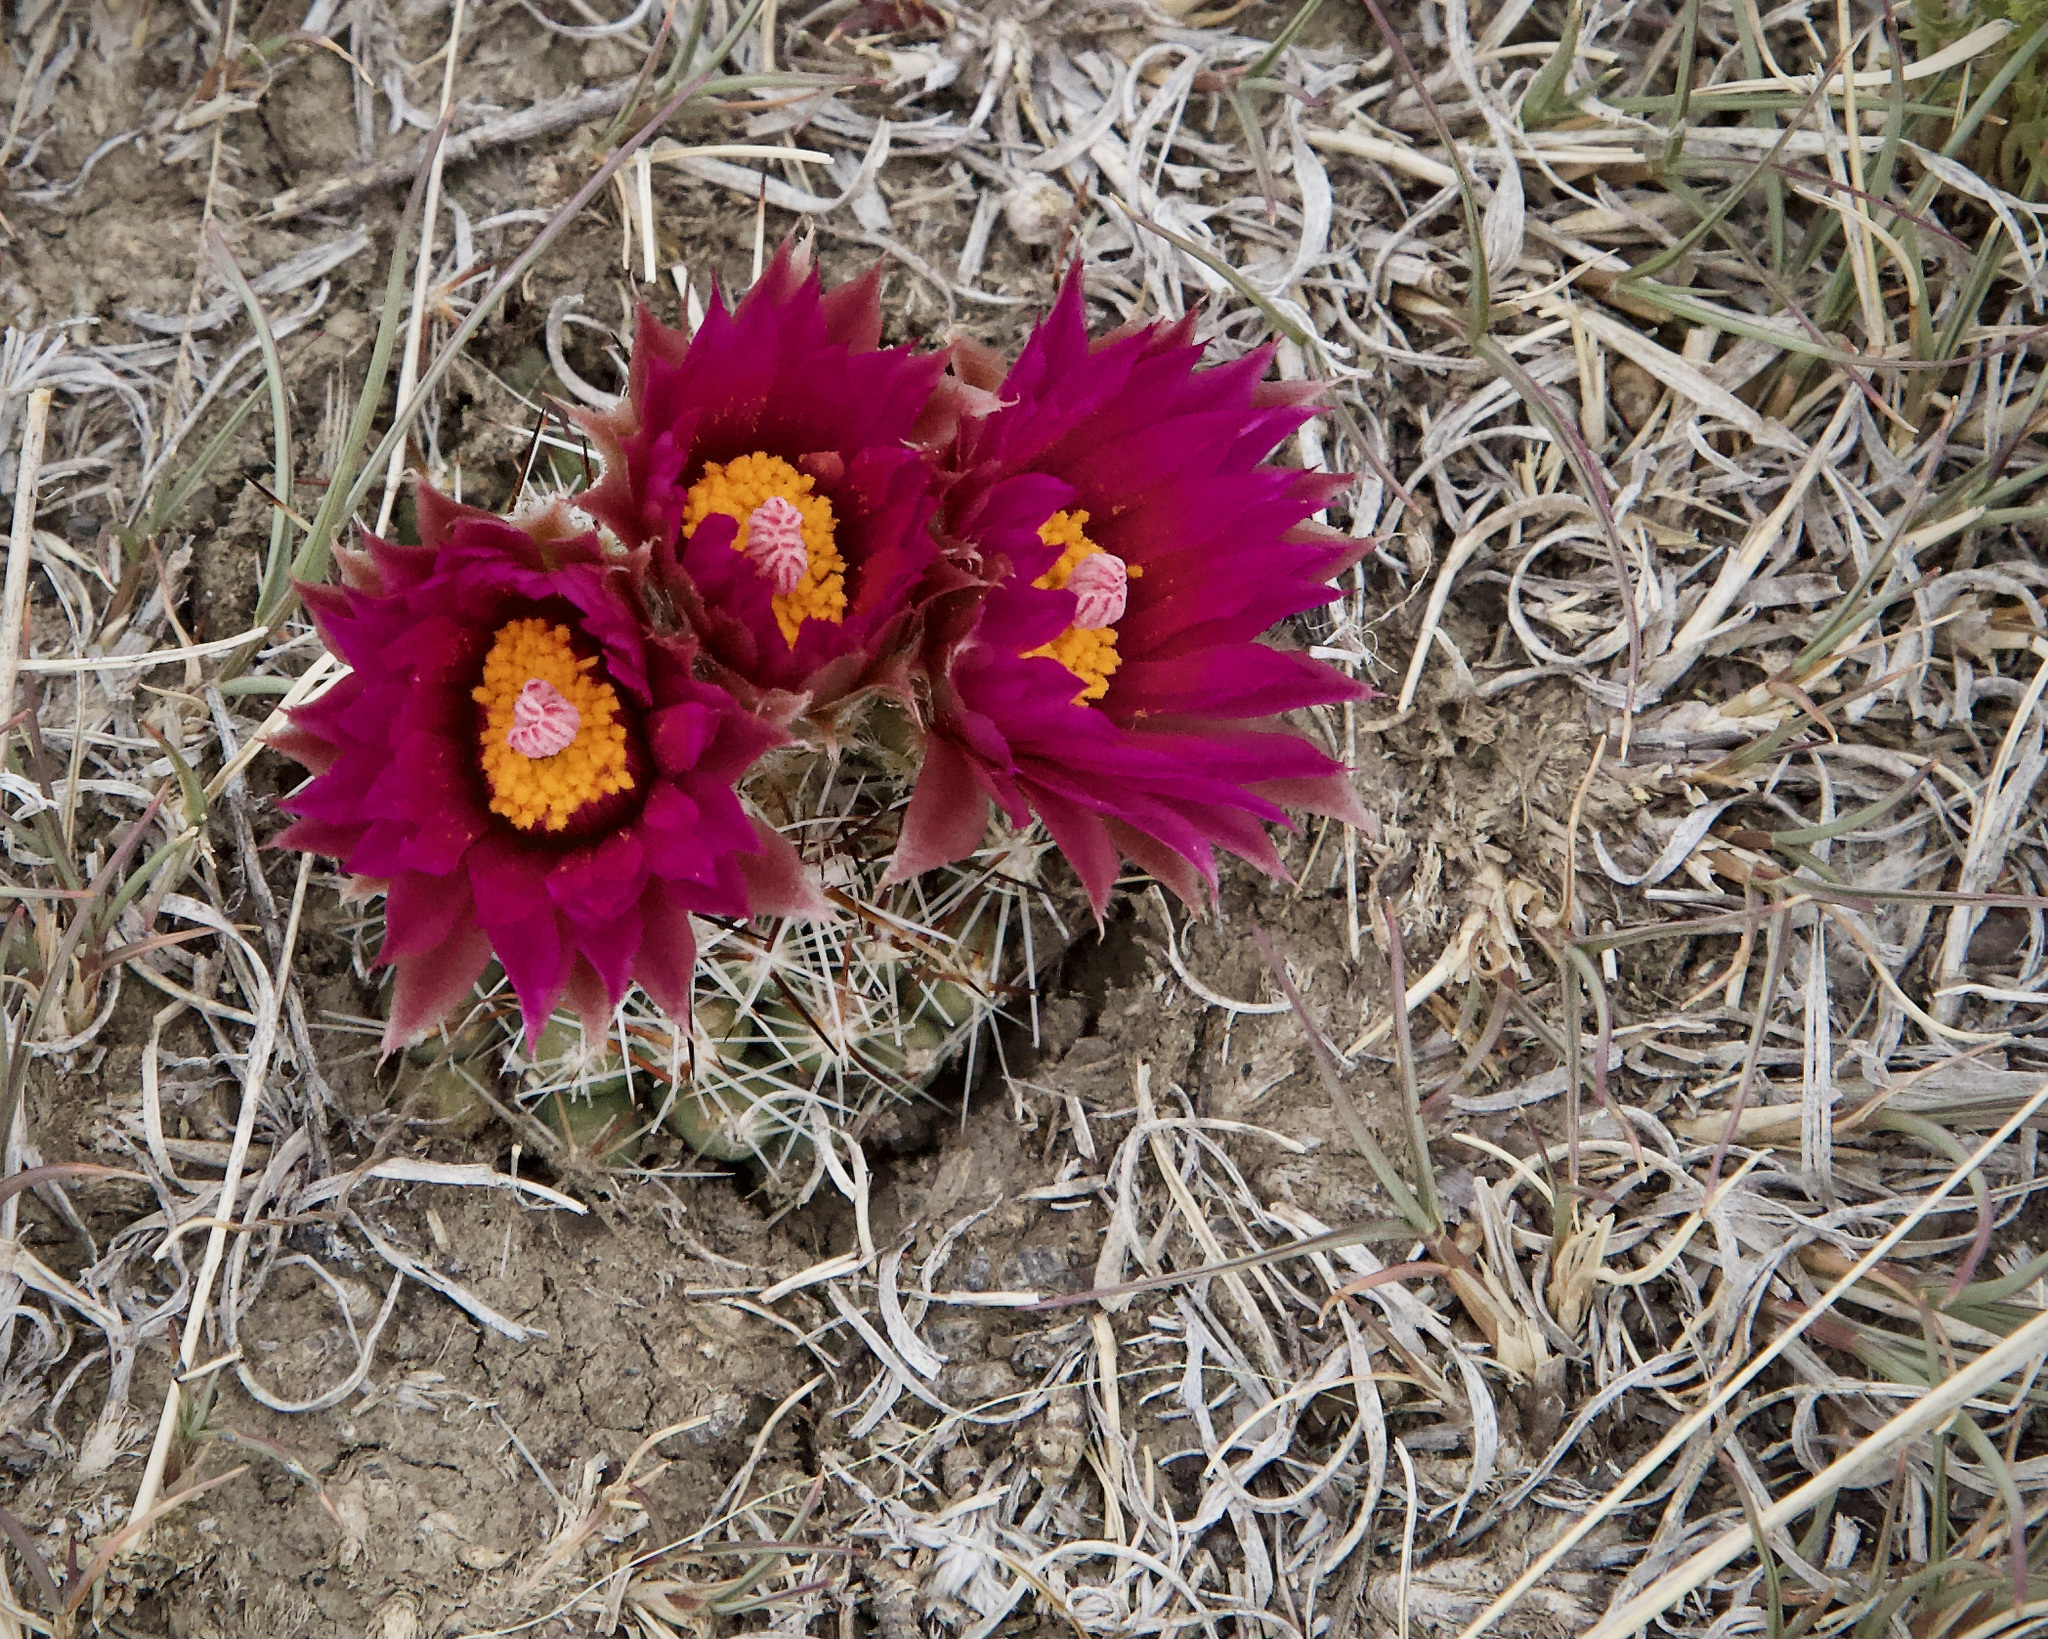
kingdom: Plantae
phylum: Tracheophyta
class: Magnoliopsida
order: Caryophyllales
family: Cactaceae
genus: Pelecyphora
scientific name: Pelecyphora vivipara
